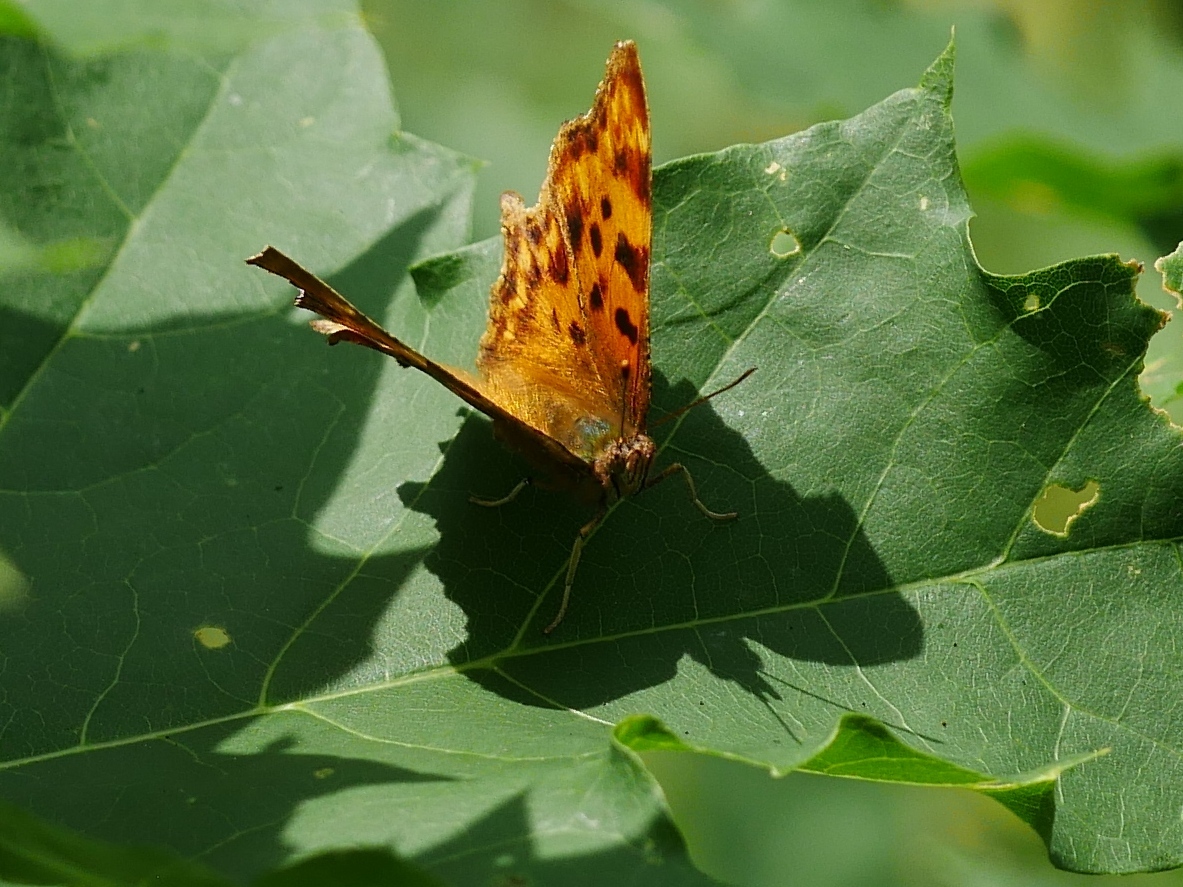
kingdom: Animalia
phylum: Arthropoda
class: Insecta
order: Lepidoptera
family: Nymphalidae
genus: Polygonia
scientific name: Polygonia c-album
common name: Comma
